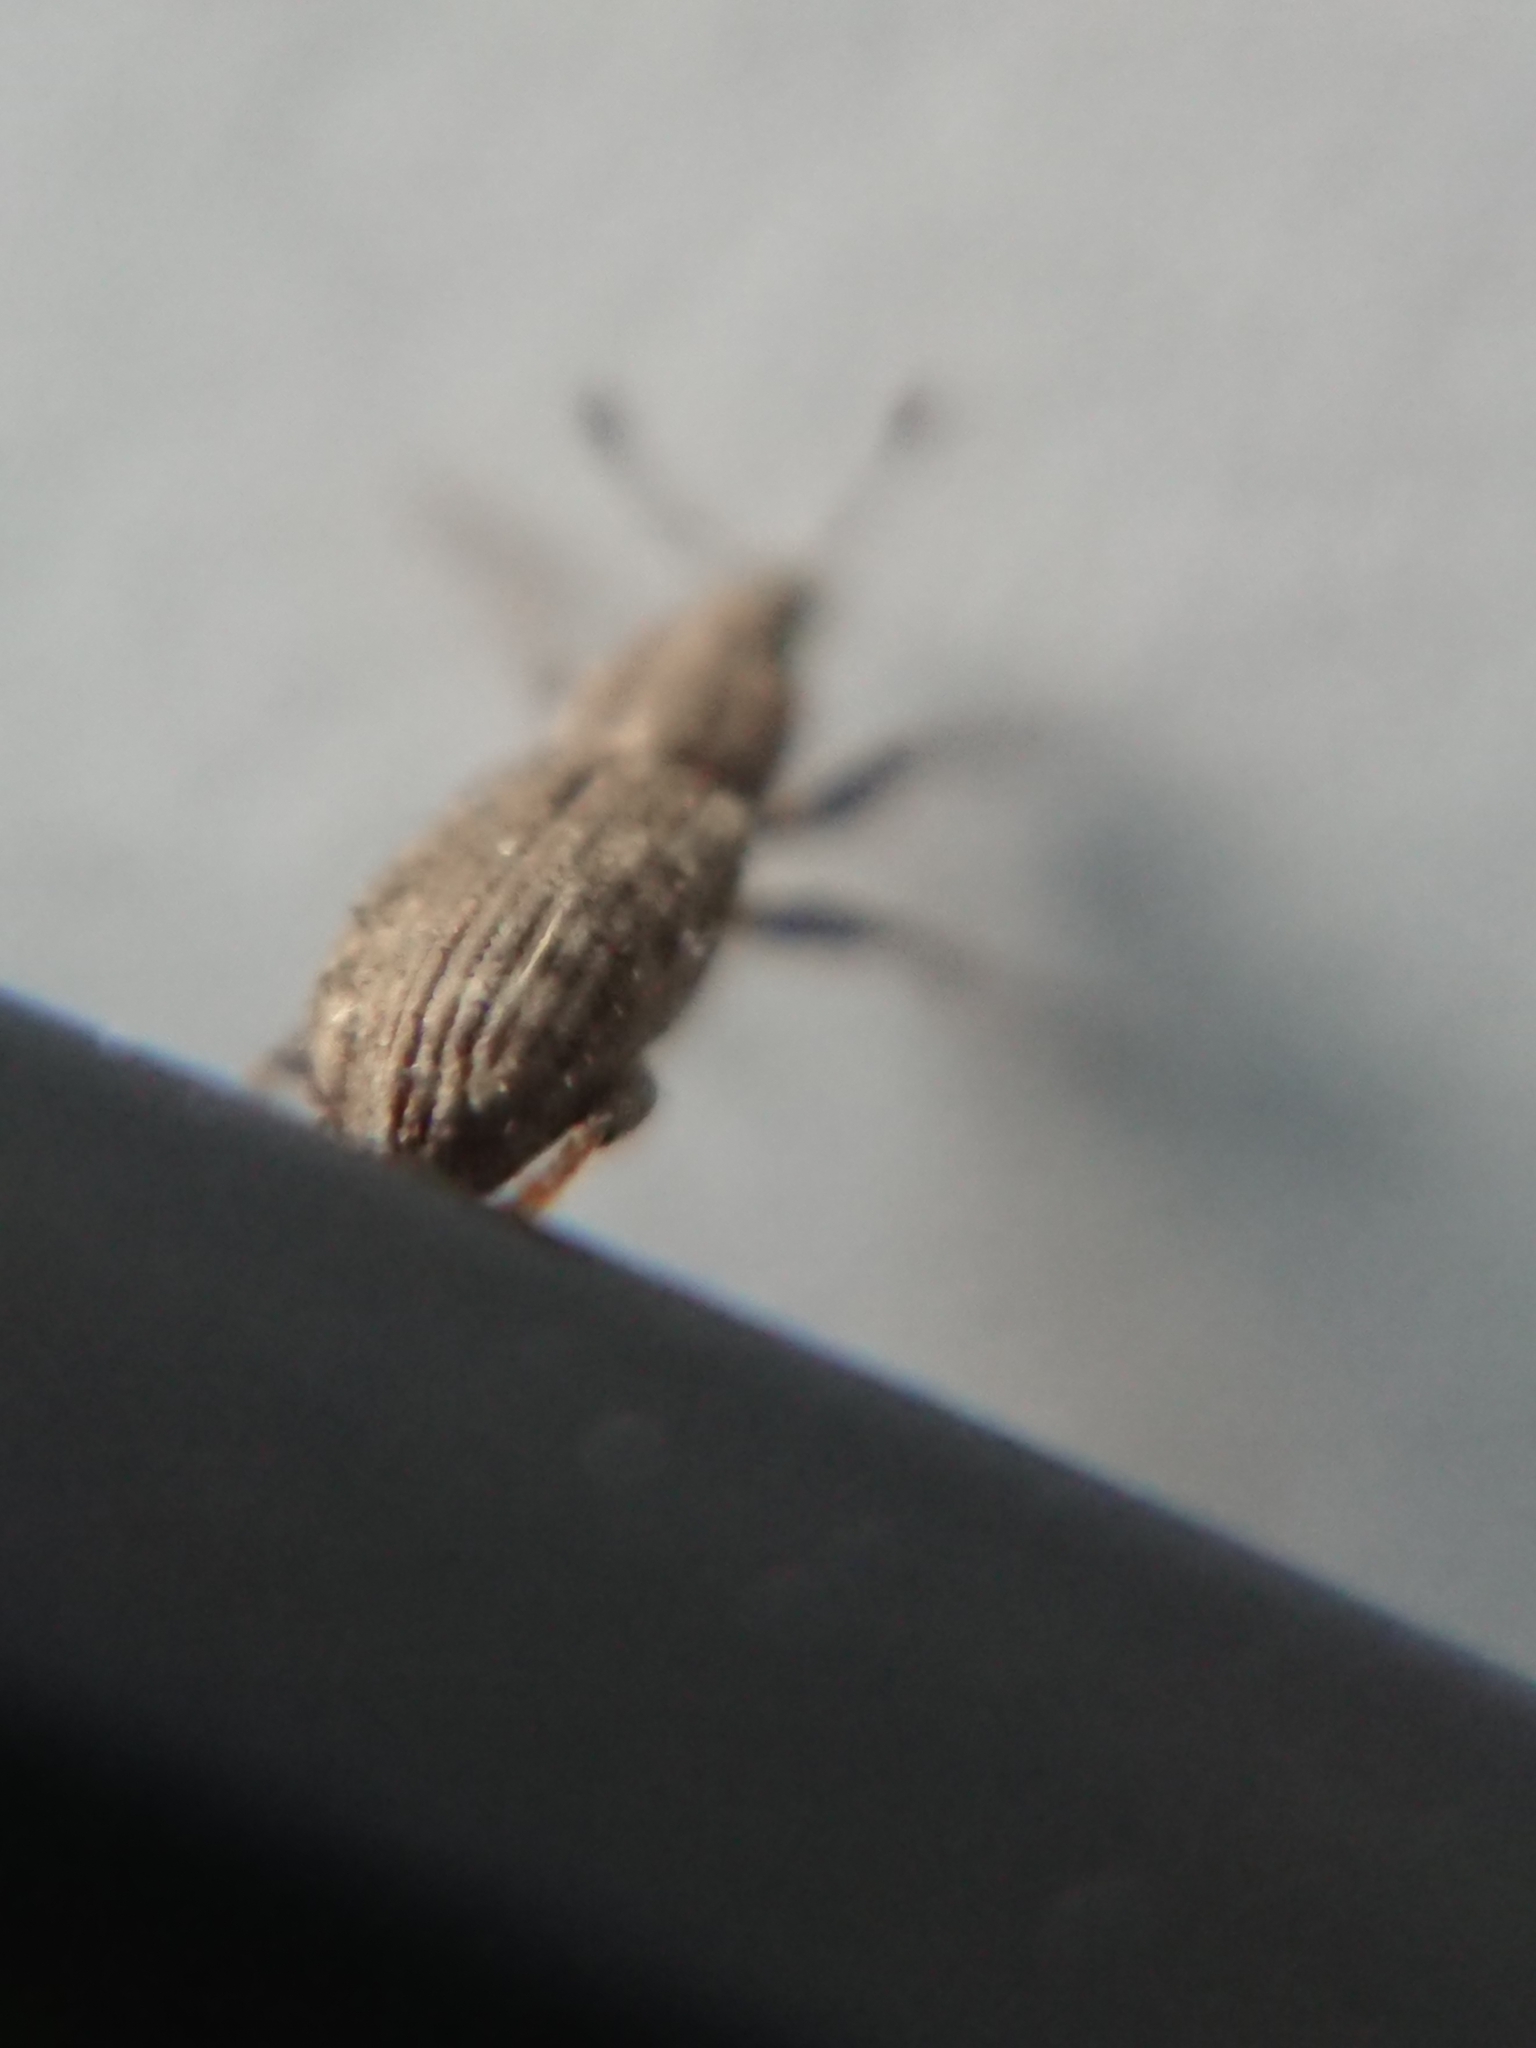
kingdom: Animalia
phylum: Arthropoda
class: Insecta
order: Coleoptera
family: Curculionidae
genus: Listronotus
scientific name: Listronotus bonariensis
